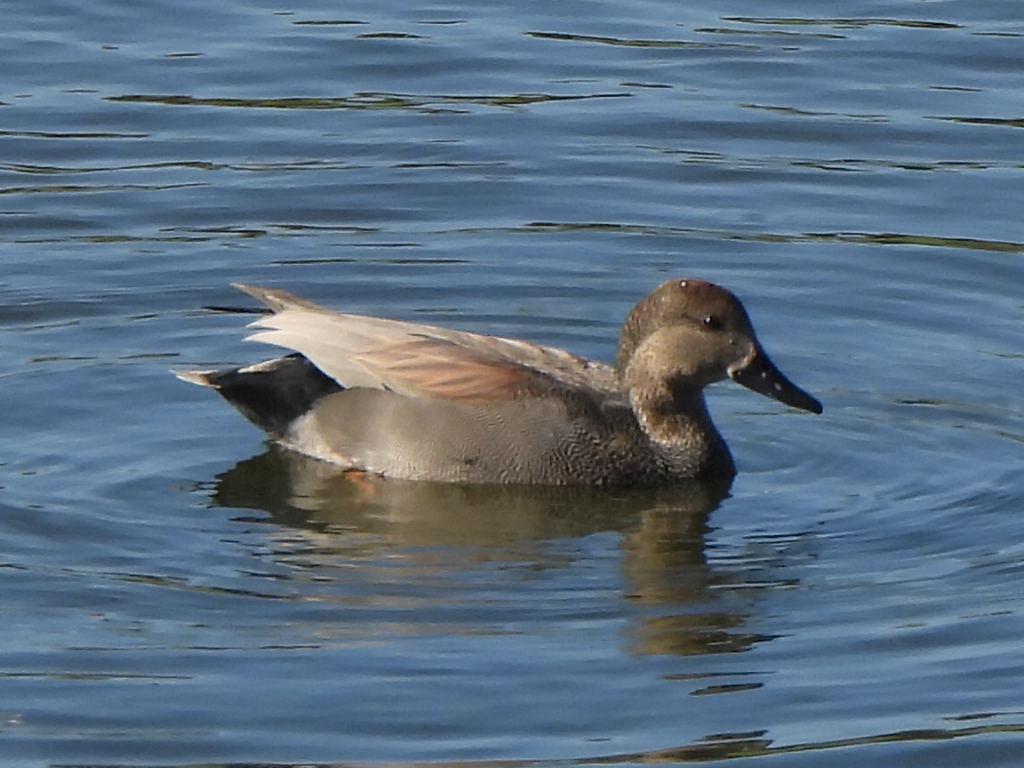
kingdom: Animalia
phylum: Chordata
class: Aves
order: Anseriformes
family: Anatidae
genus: Mareca
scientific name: Mareca strepera
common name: Gadwall
